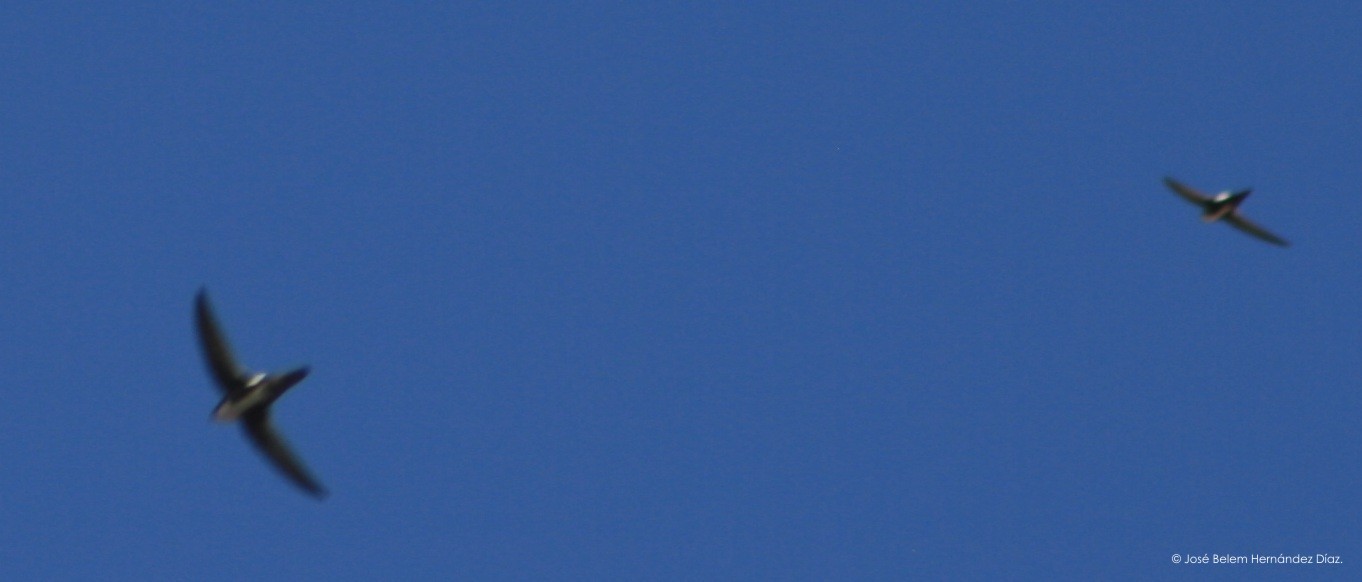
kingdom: Animalia
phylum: Chordata
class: Aves
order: Apodiformes
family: Apodidae
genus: Aeronautes
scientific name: Aeronautes saxatalis
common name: White-throated swift
